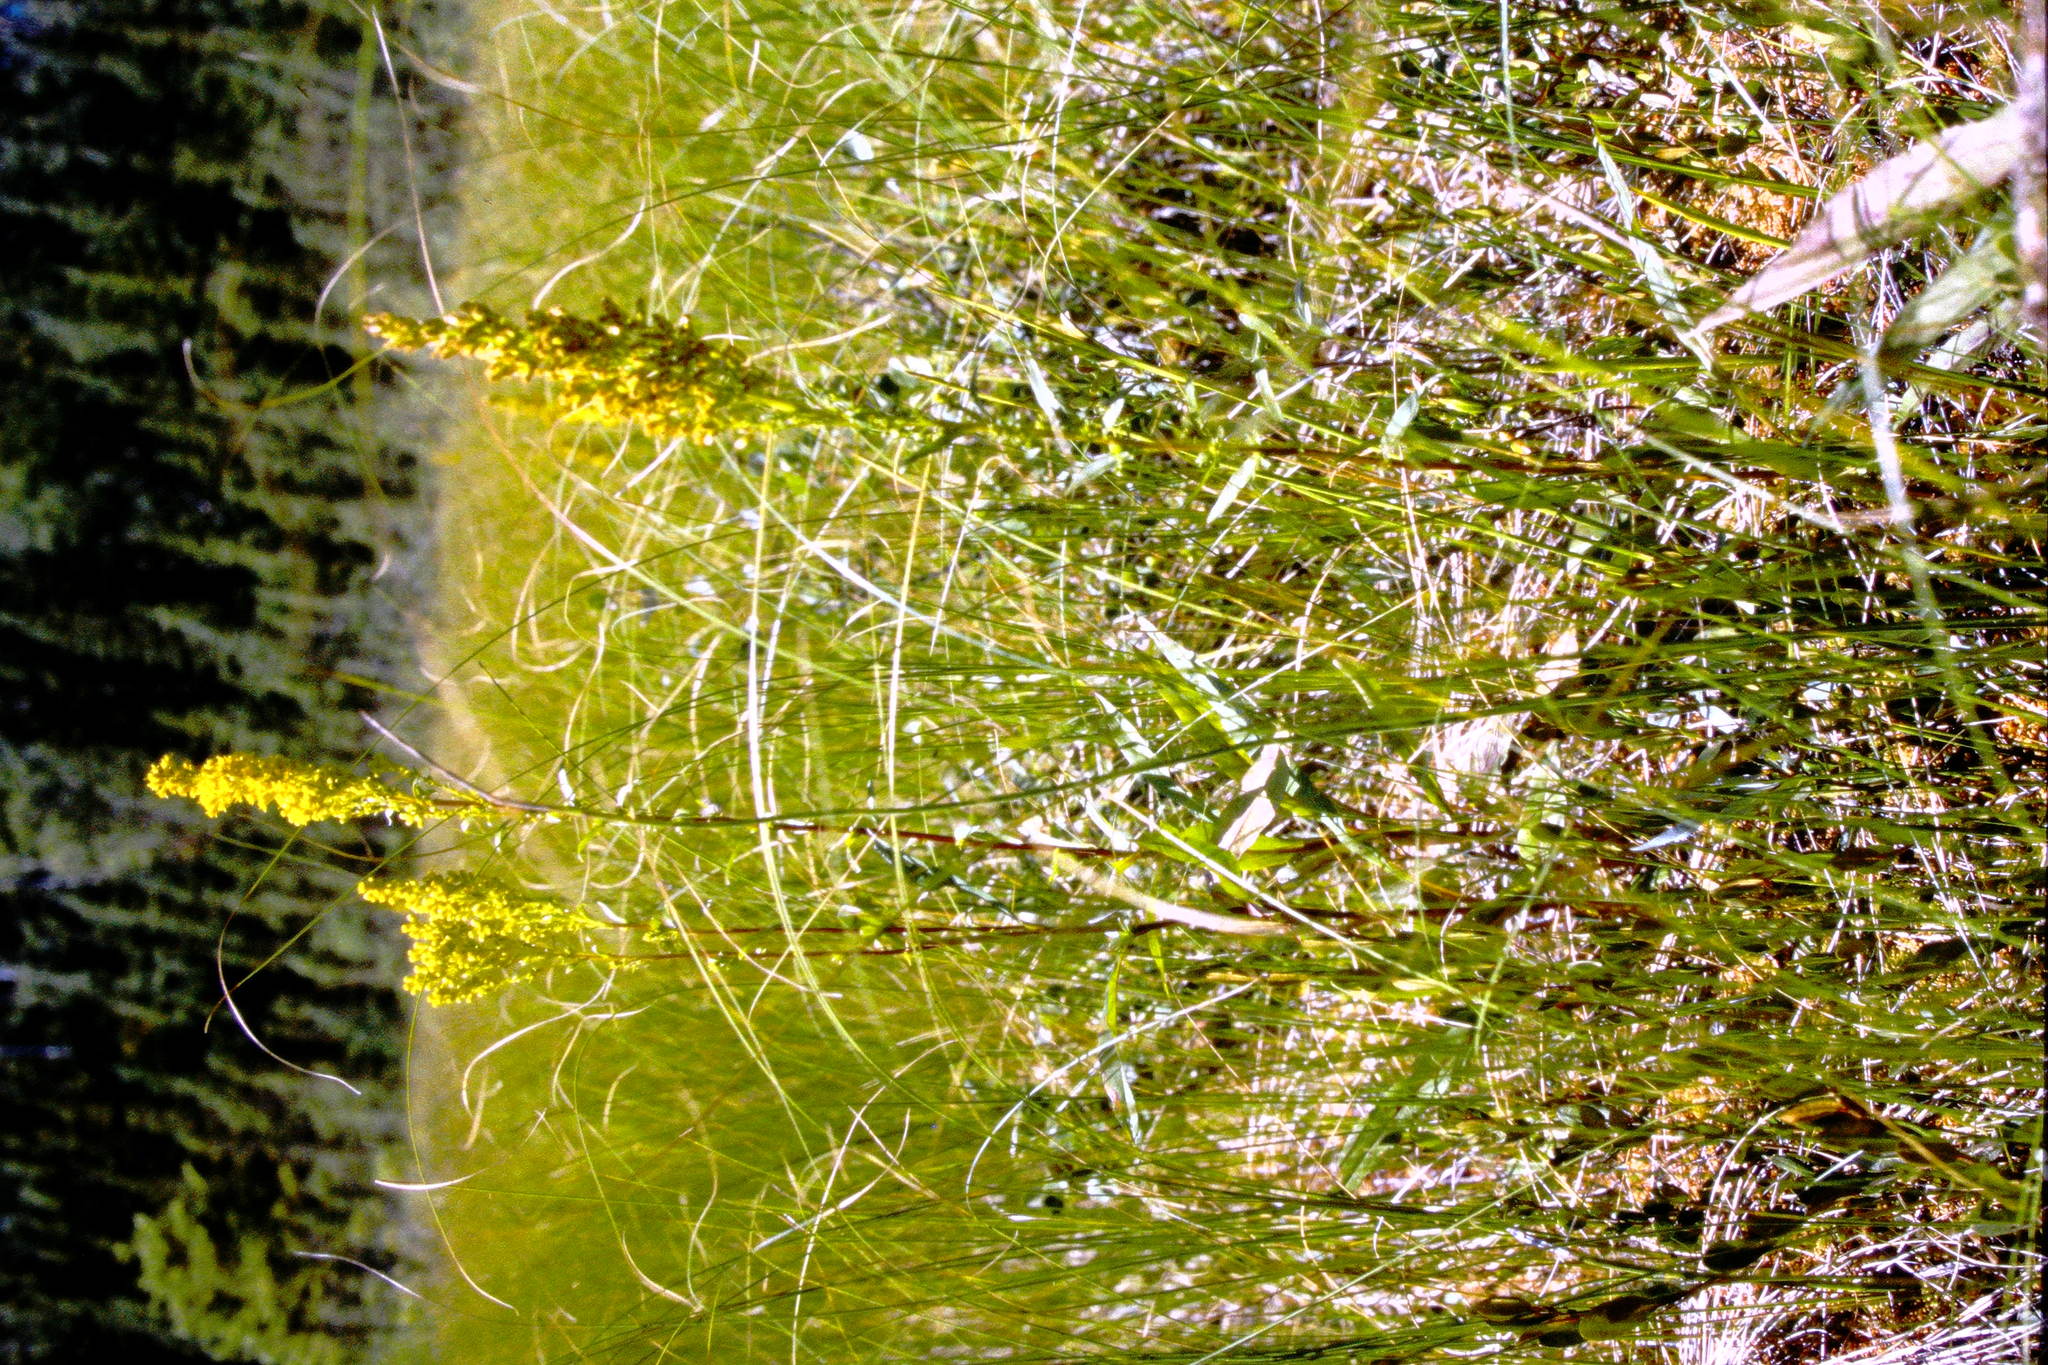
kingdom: Plantae
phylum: Tracheophyta
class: Magnoliopsida
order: Asterales
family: Asteraceae
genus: Solidago
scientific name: Solidago uliginosa
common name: Bog goldenrod
